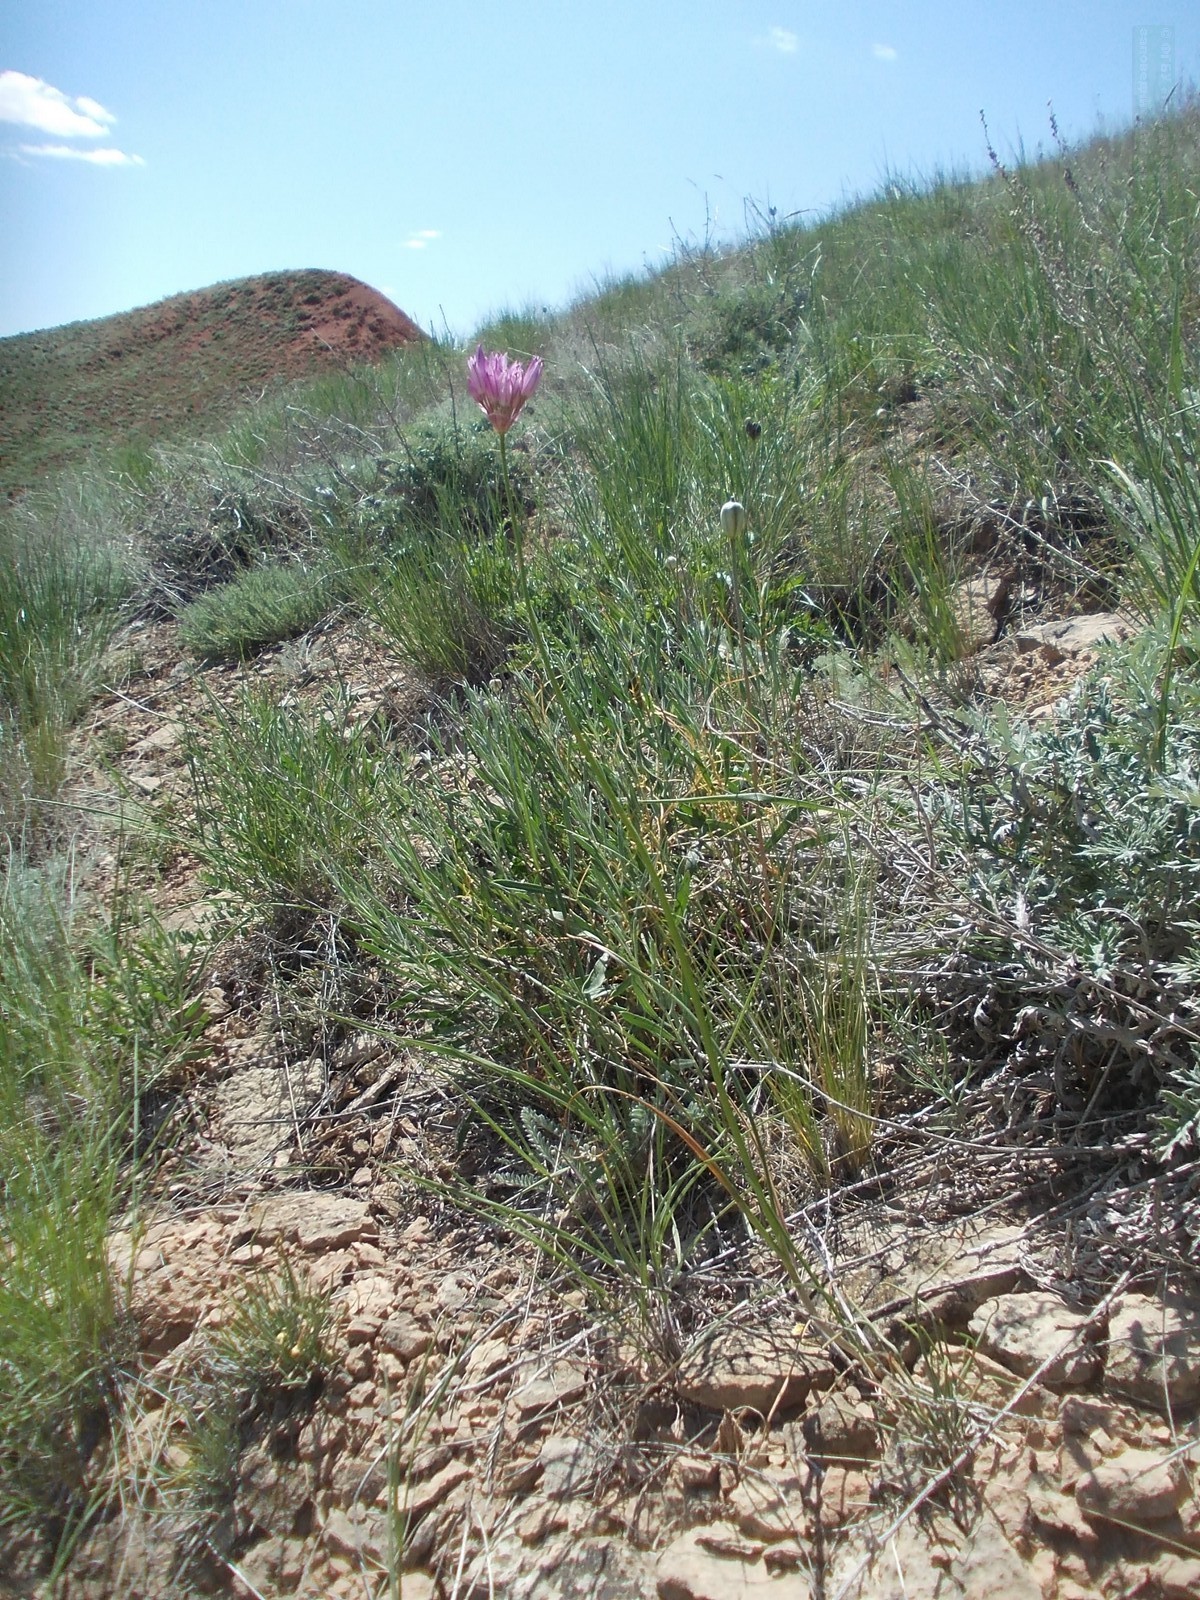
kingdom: Plantae
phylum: Tracheophyta
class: Liliopsida
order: Asparagales
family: Amaryllidaceae
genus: Allium
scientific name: Allium inderiense
